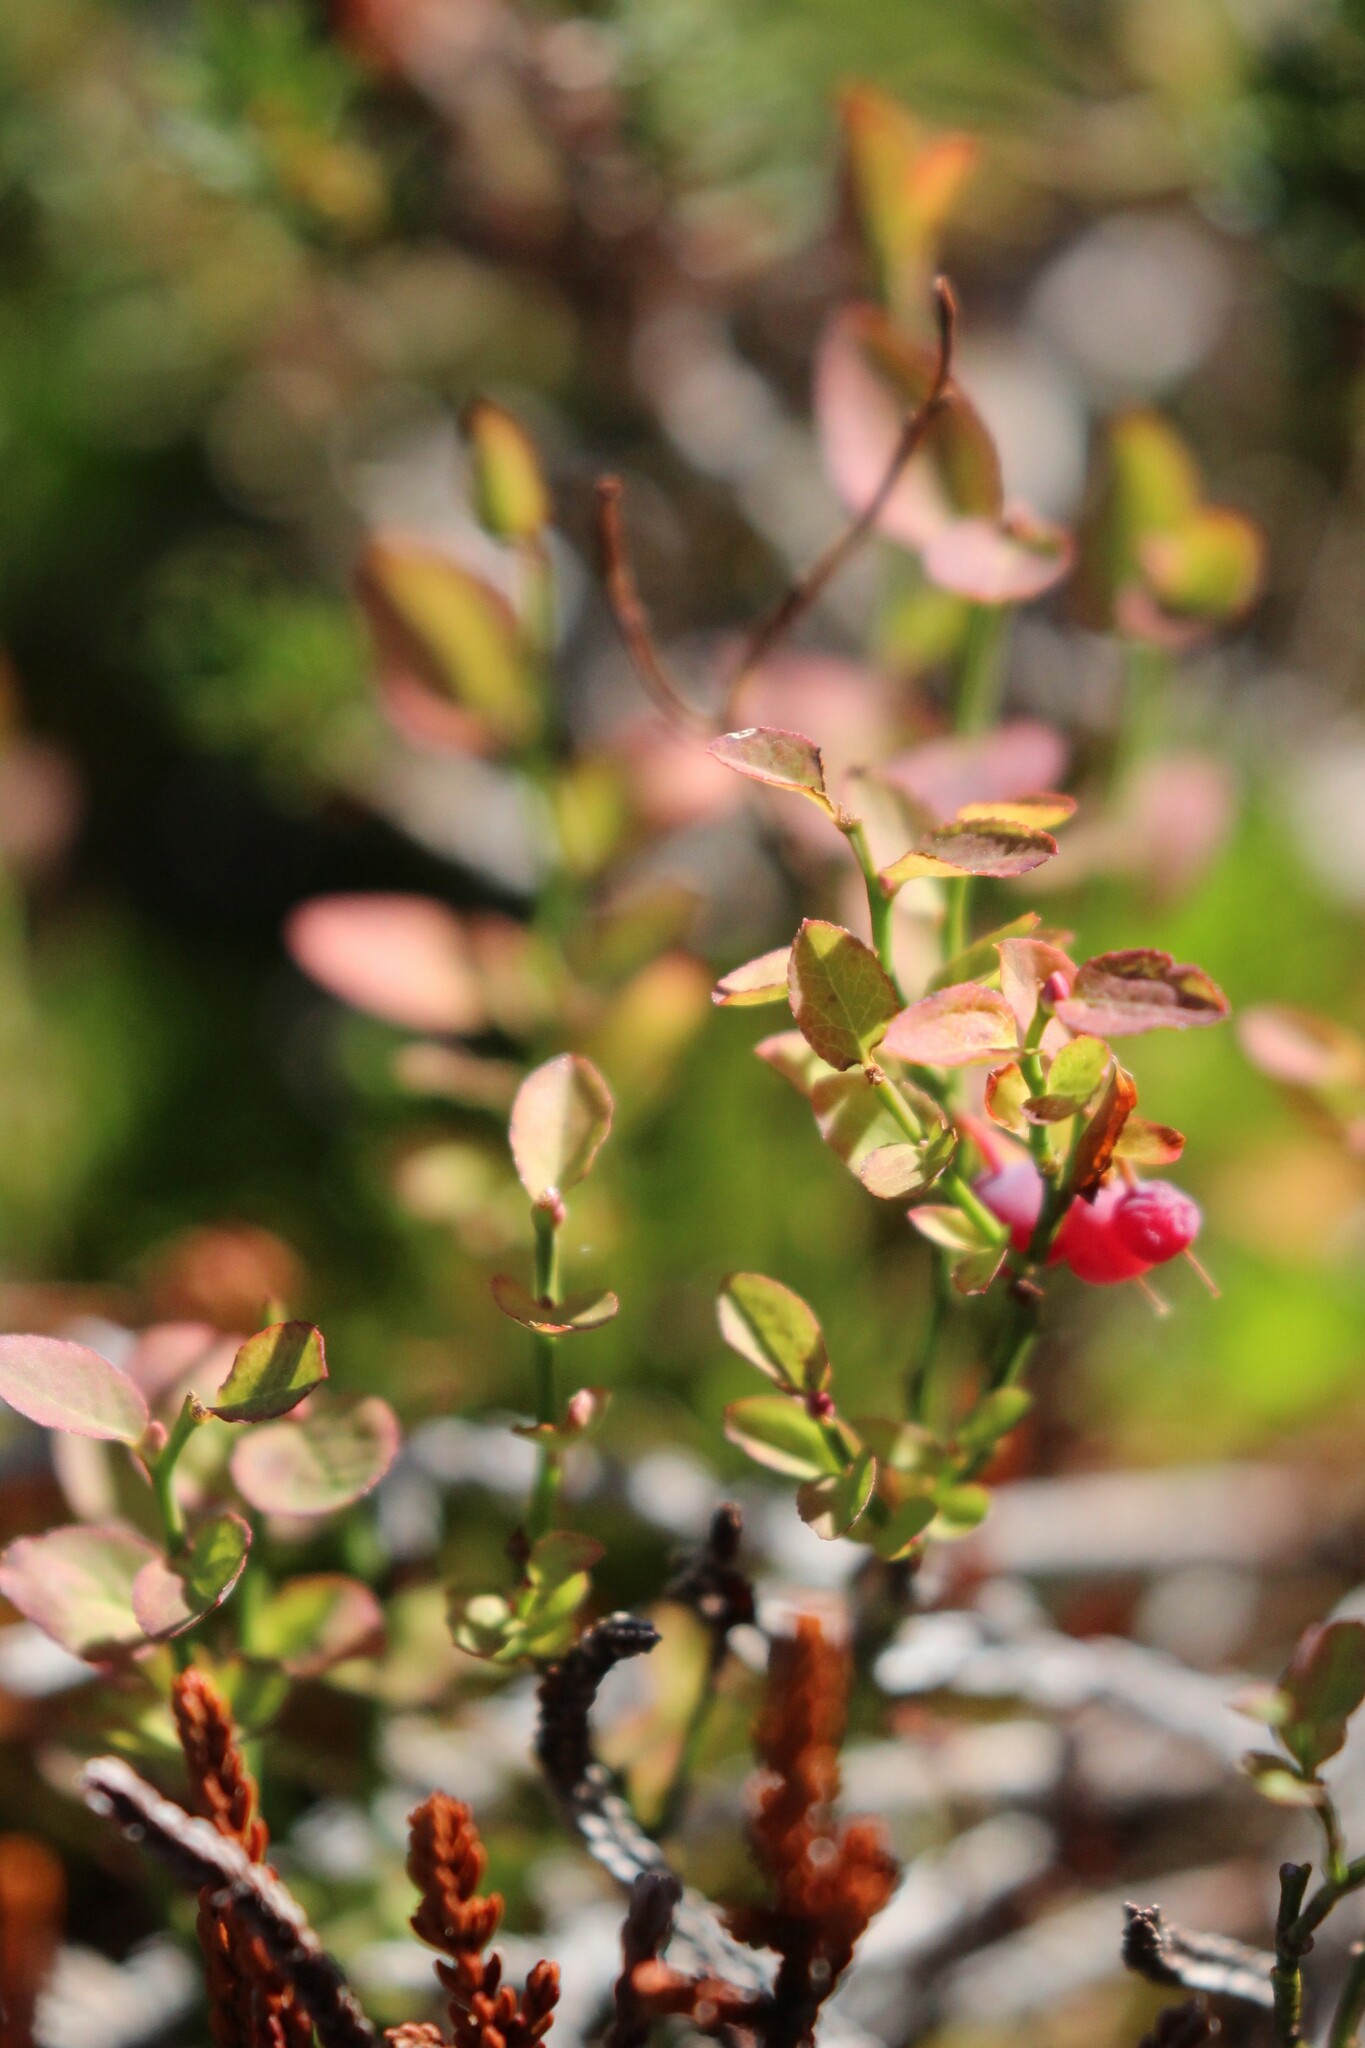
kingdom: Plantae
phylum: Tracheophyta
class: Magnoliopsida
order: Ericales
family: Ericaceae
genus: Vaccinium
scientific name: Vaccinium scoparium
